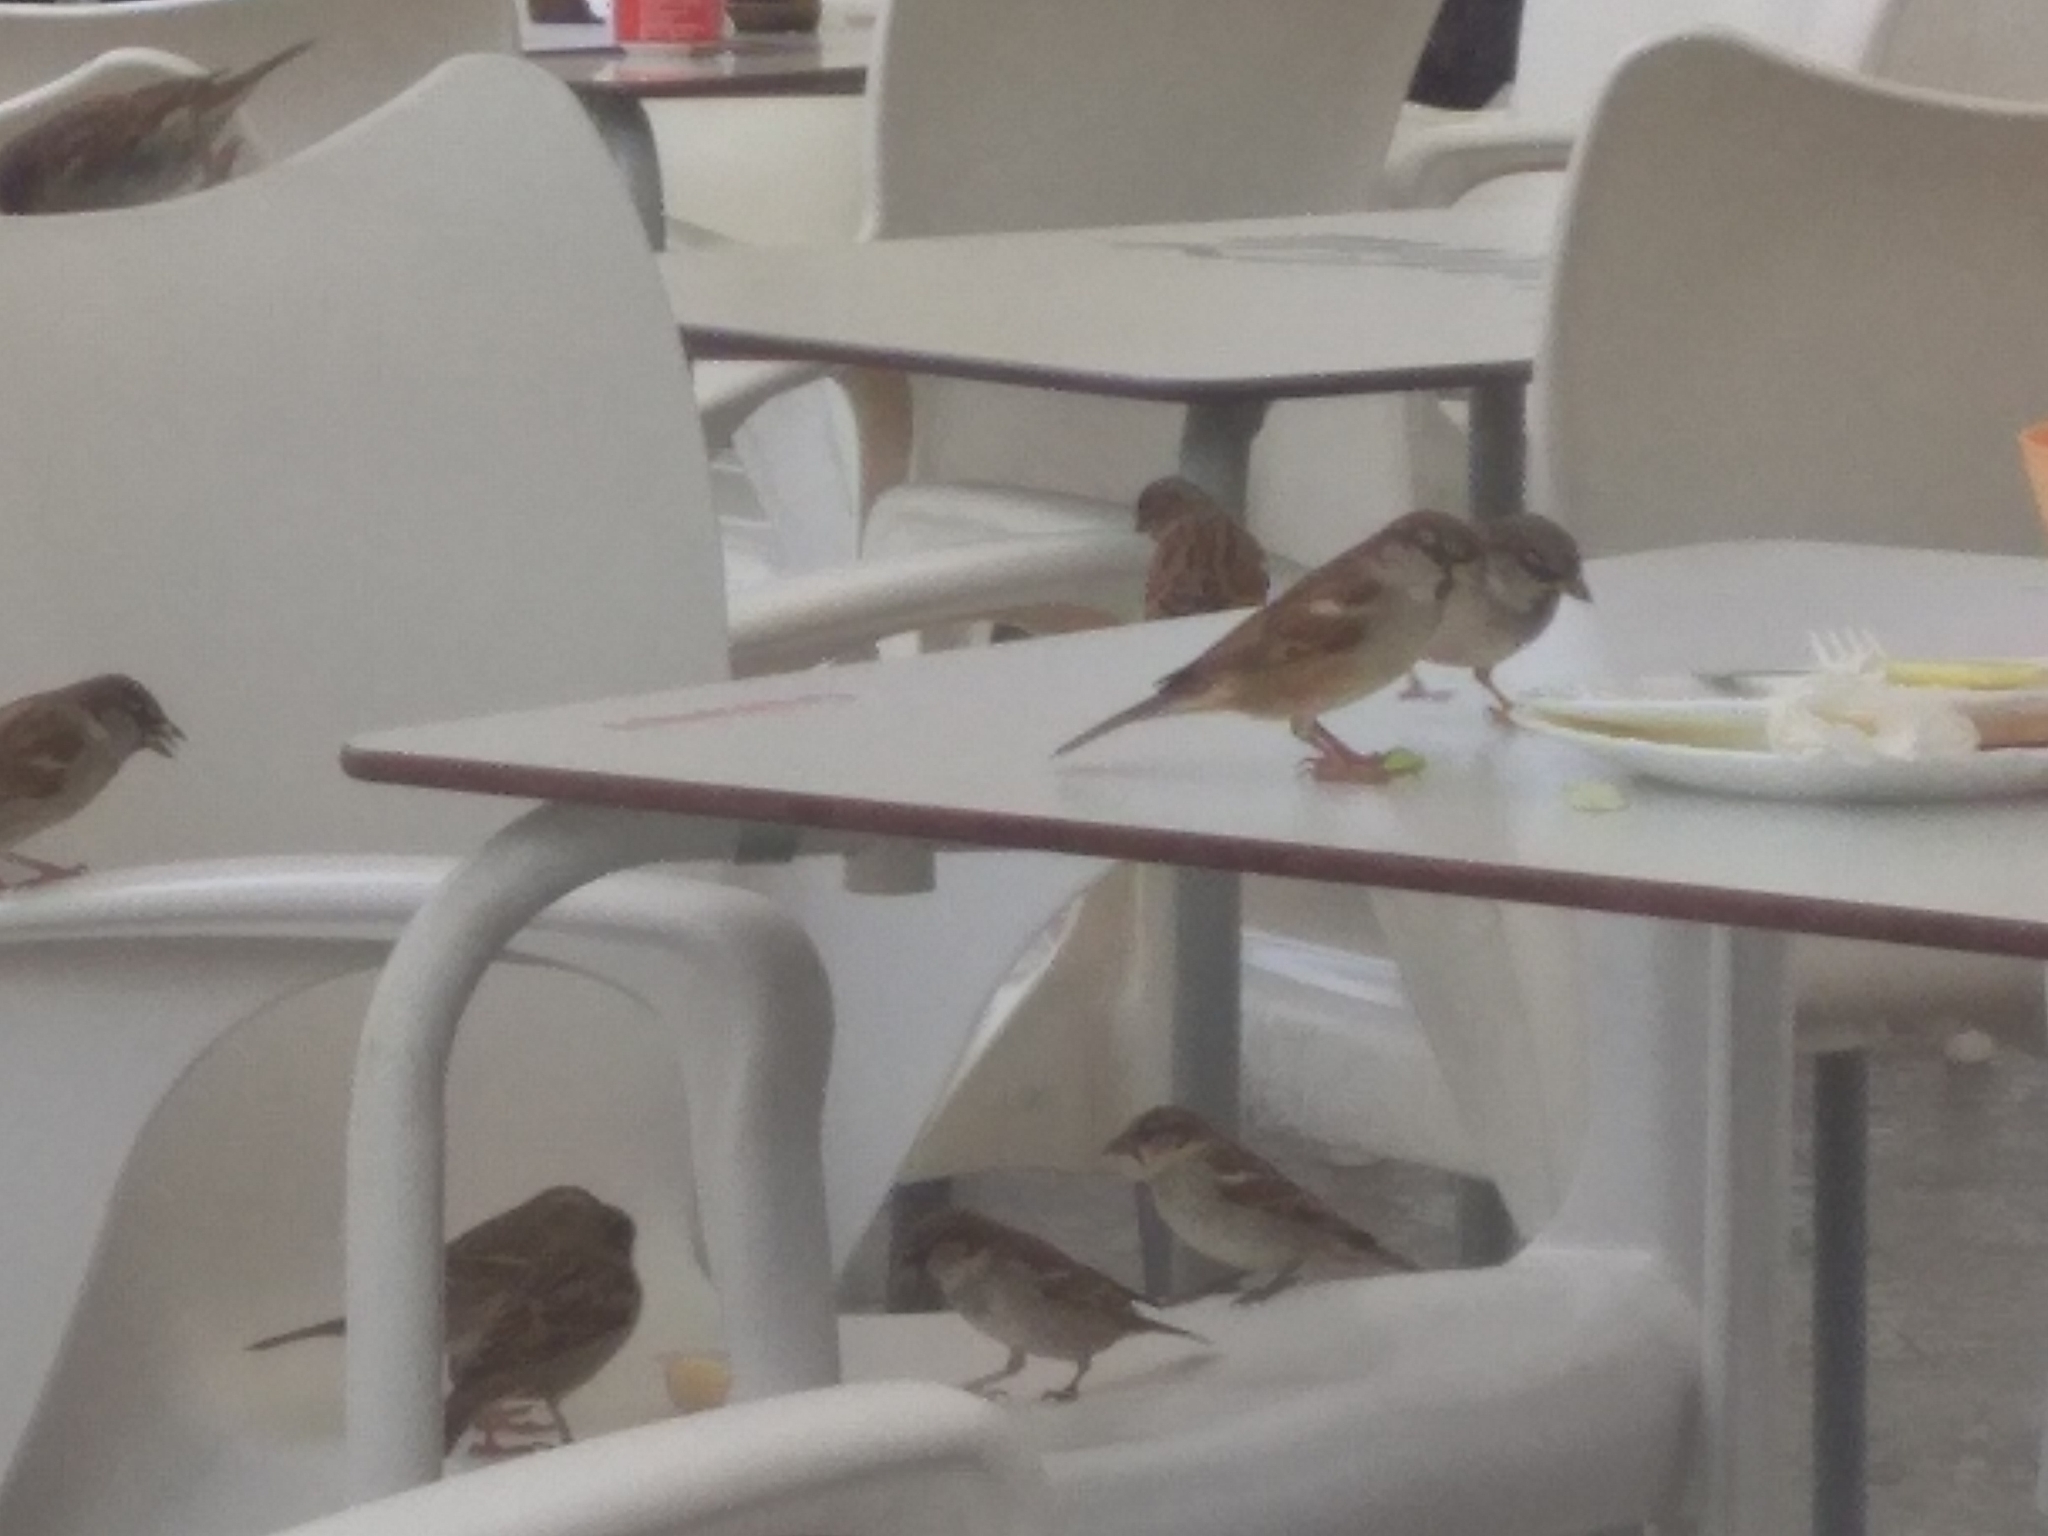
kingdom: Animalia
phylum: Chordata
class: Aves
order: Passeriformes
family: Passeridae
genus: Passer
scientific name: Passer domesticus
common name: House sparrow
